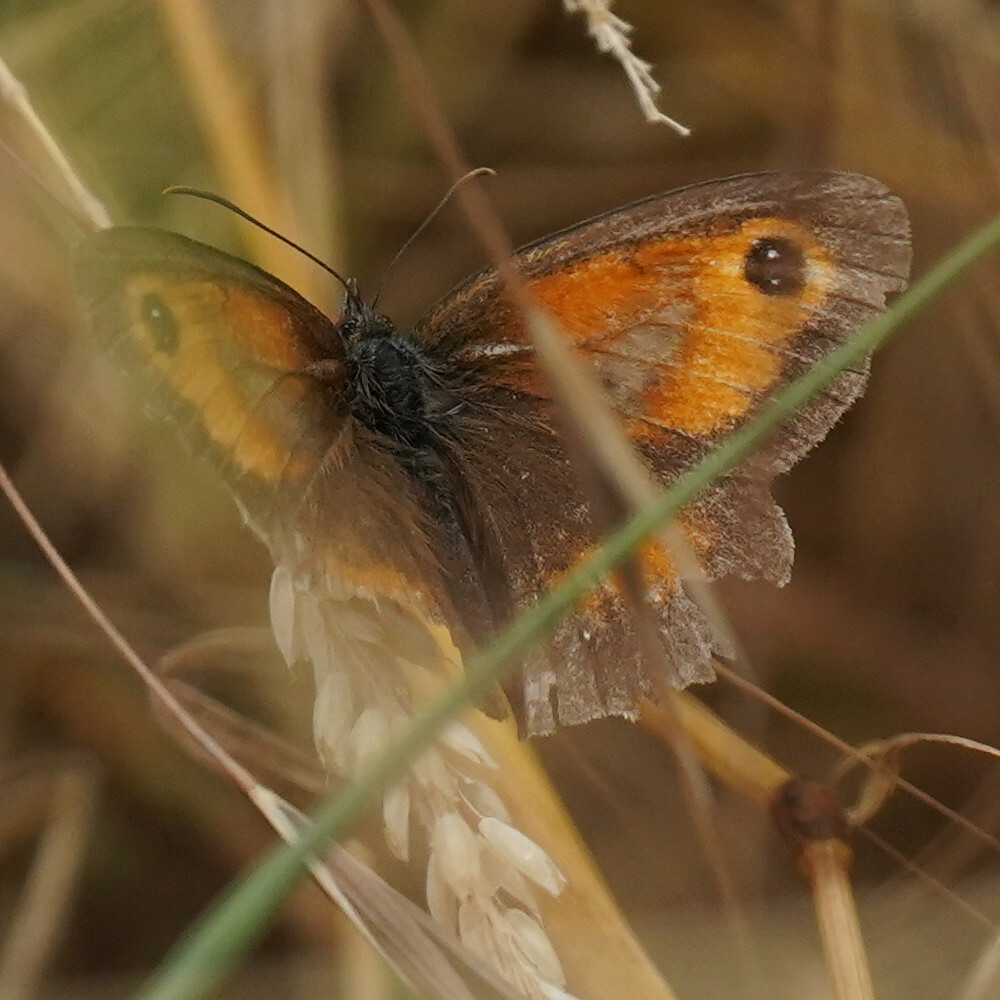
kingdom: Animalia
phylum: Arthropoda
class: Insecta
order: Lepidoptera
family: Nymphalidae
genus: Pyronia
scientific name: Pyronia tithonus
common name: Gatekeeper
